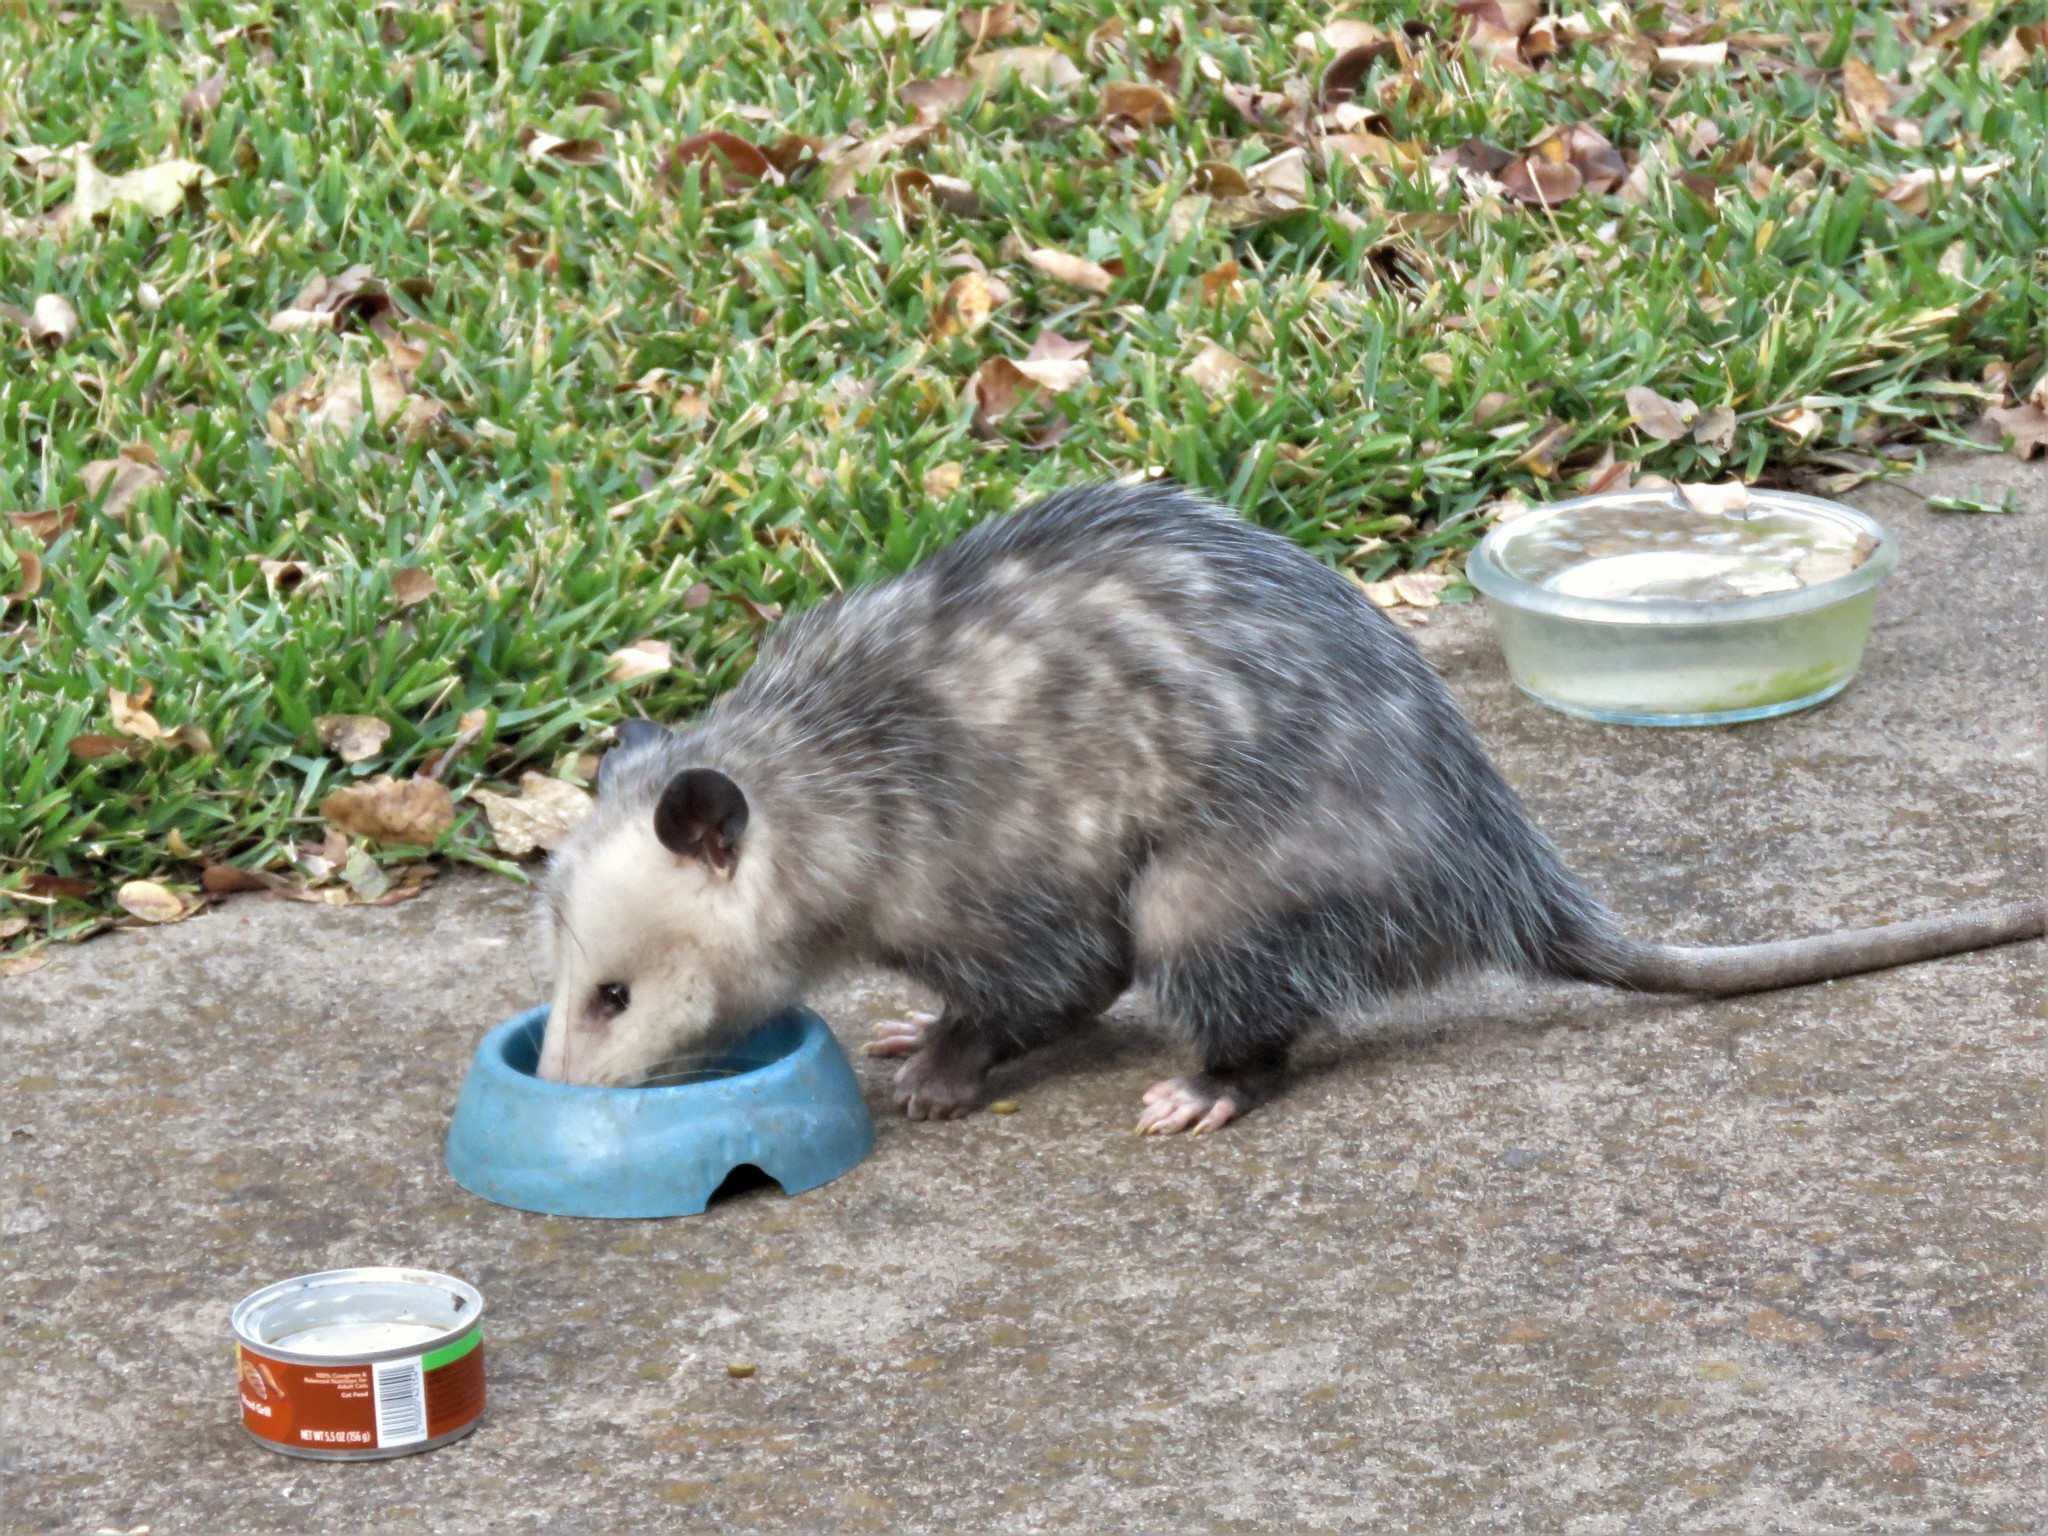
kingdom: Animalia
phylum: Chordata
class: Mammalia
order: Didelphimorphia
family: Didelphidae
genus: Didelphis
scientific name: Didelphis virginiana
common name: Virginia opossum
